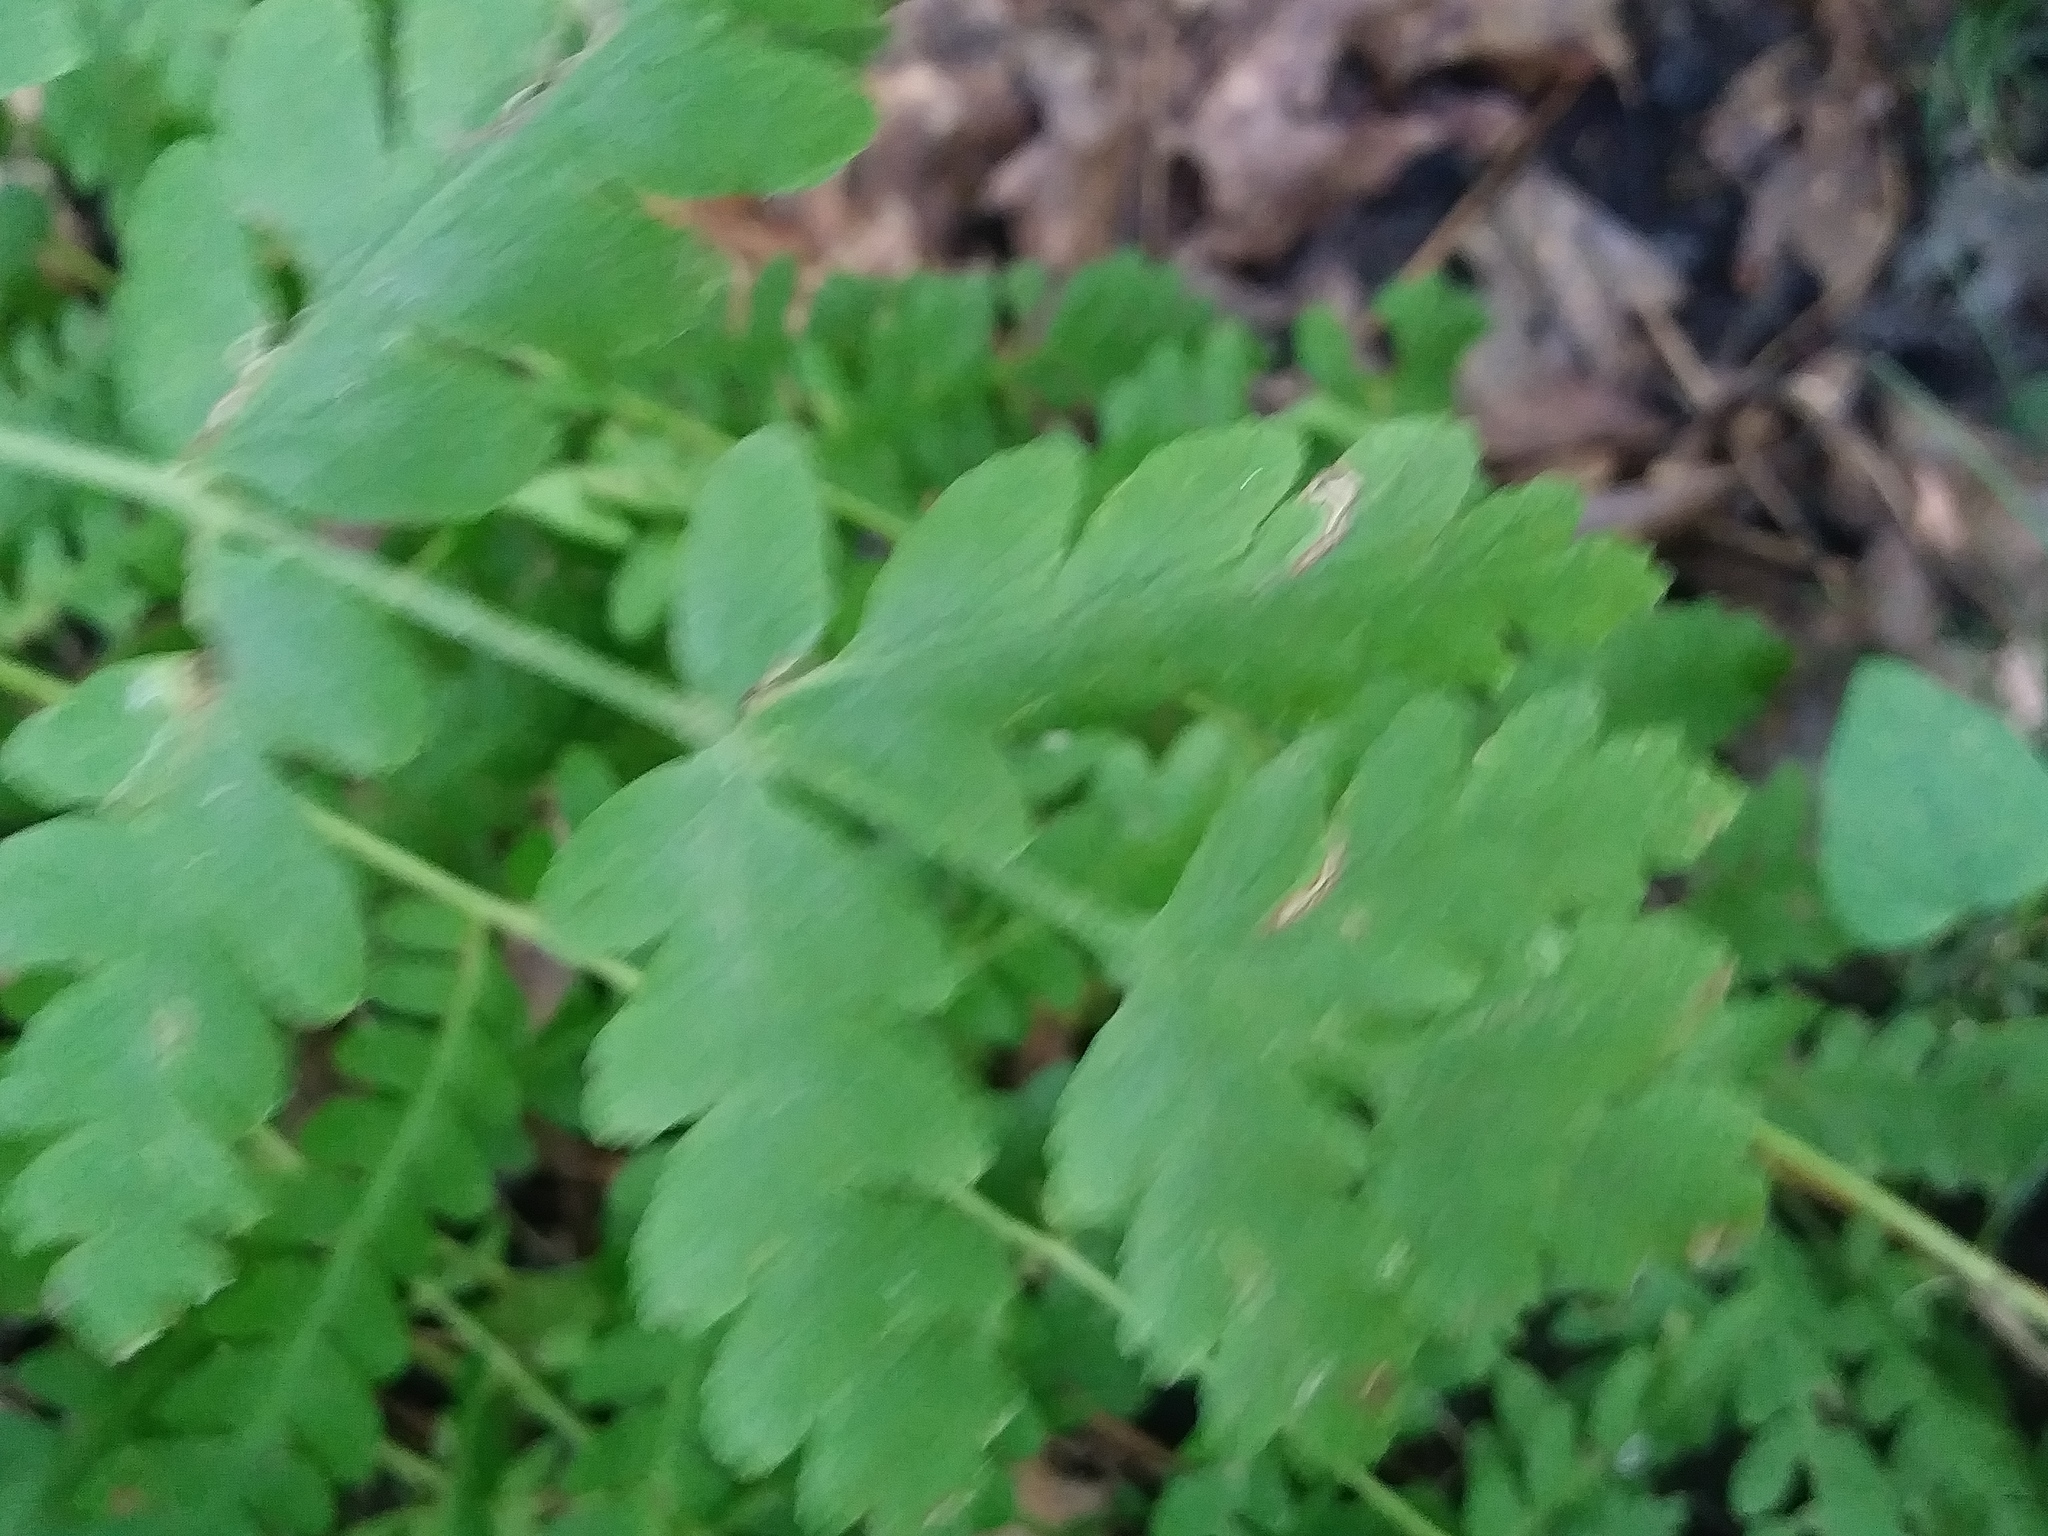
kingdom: Plantae
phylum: Tracheophyta
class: Polypodiopsida
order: Osmundales
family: Osmundaceae
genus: Claytosmunda
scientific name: Claytosmunda claytoniana
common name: Clayton's fern
